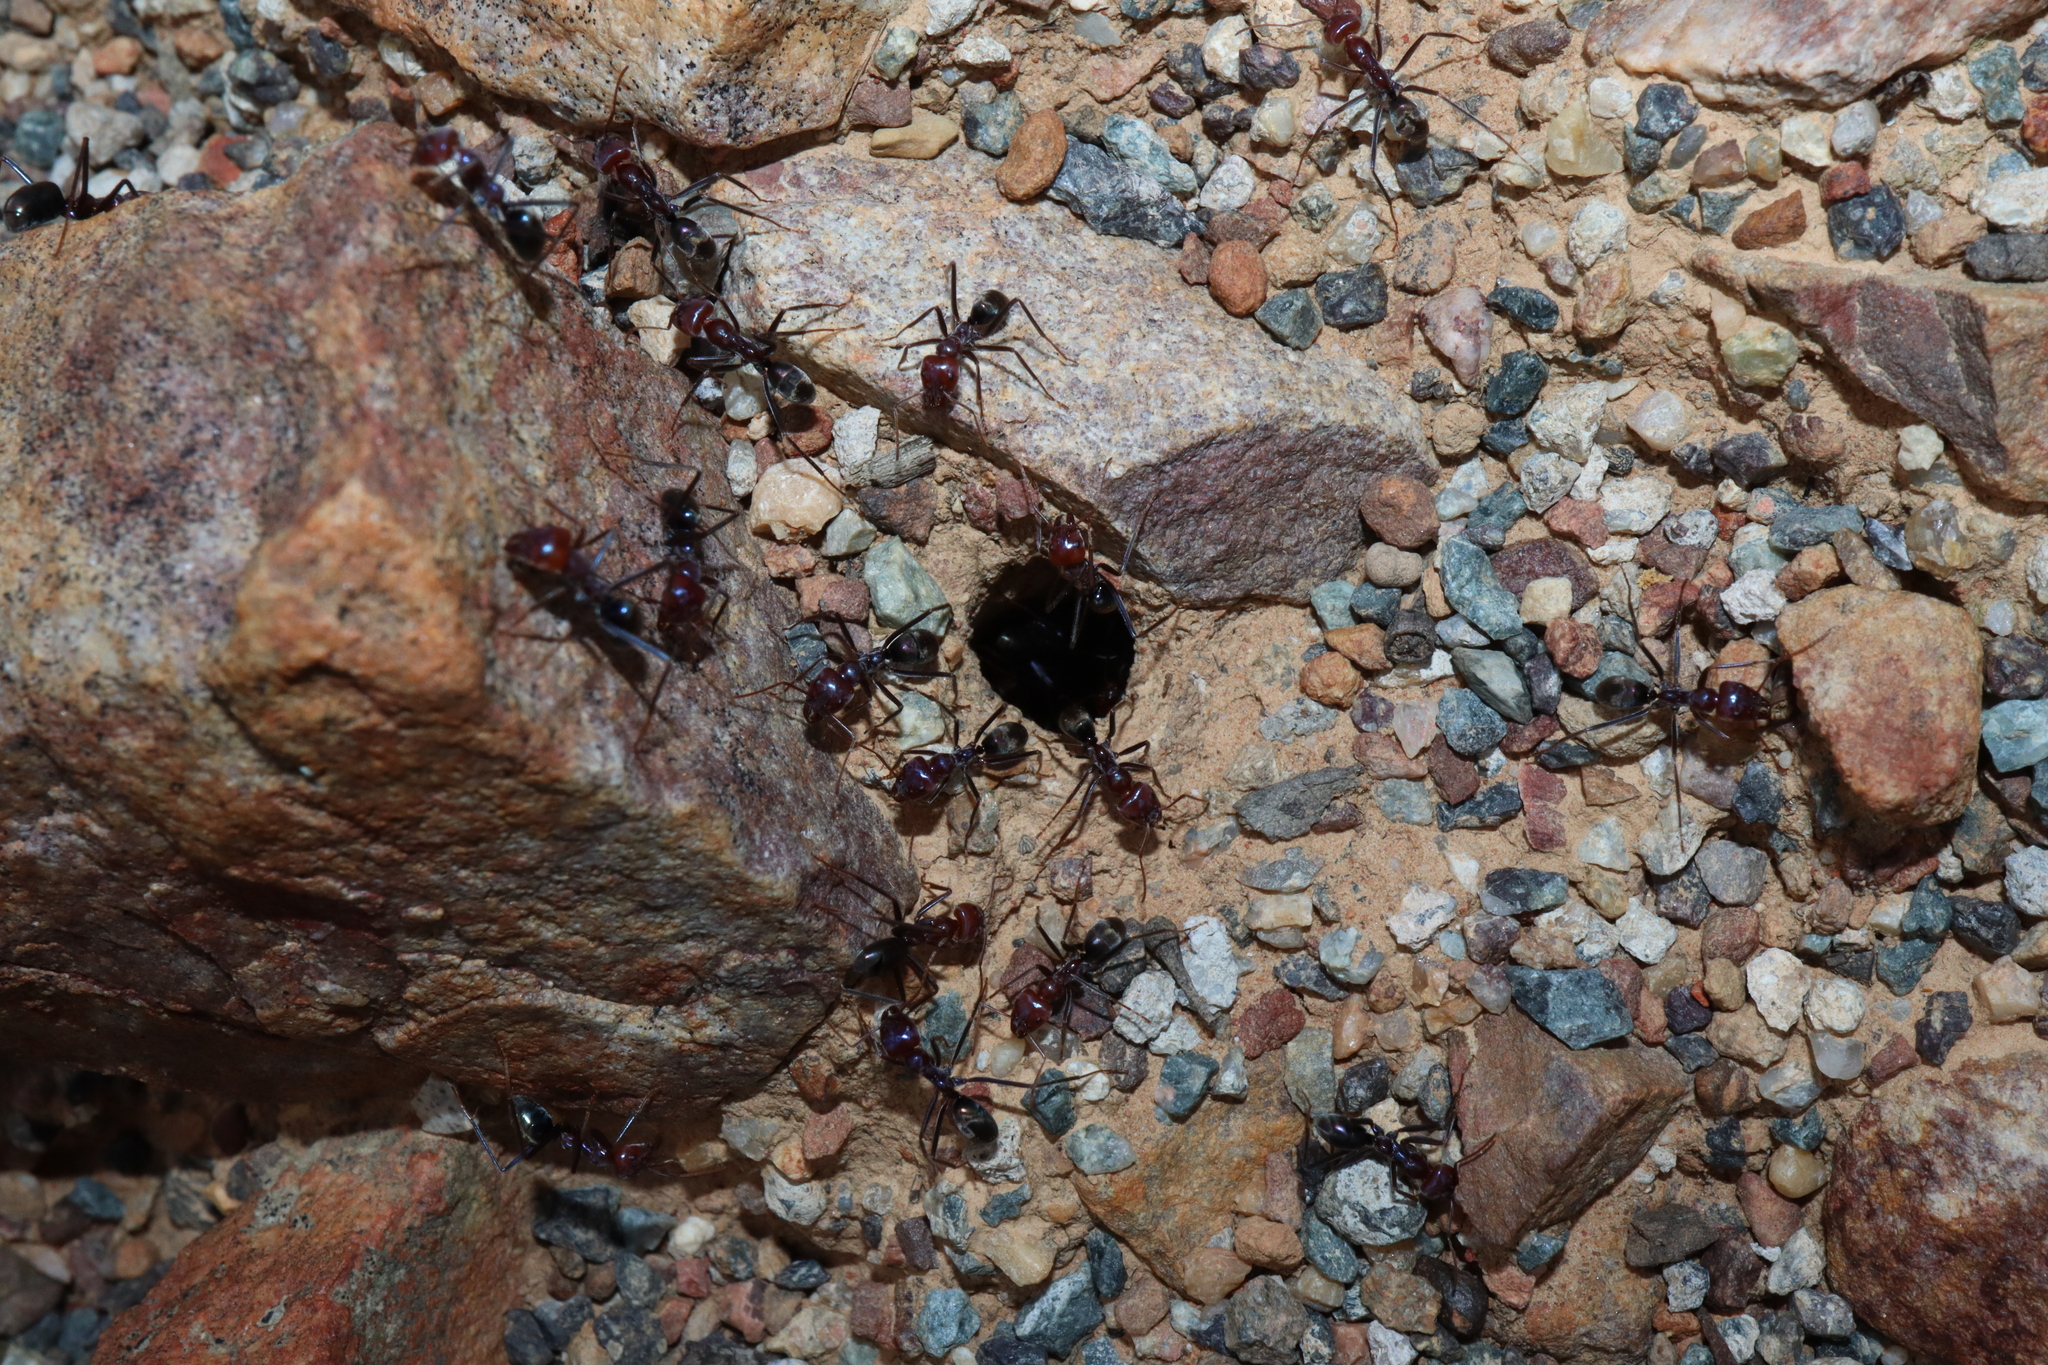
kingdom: Animalia
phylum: Arthropoda
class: Insecta
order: Hymenoptera
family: Formicidae
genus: Iridomyrmex
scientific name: Iridomyrmex purpureus
